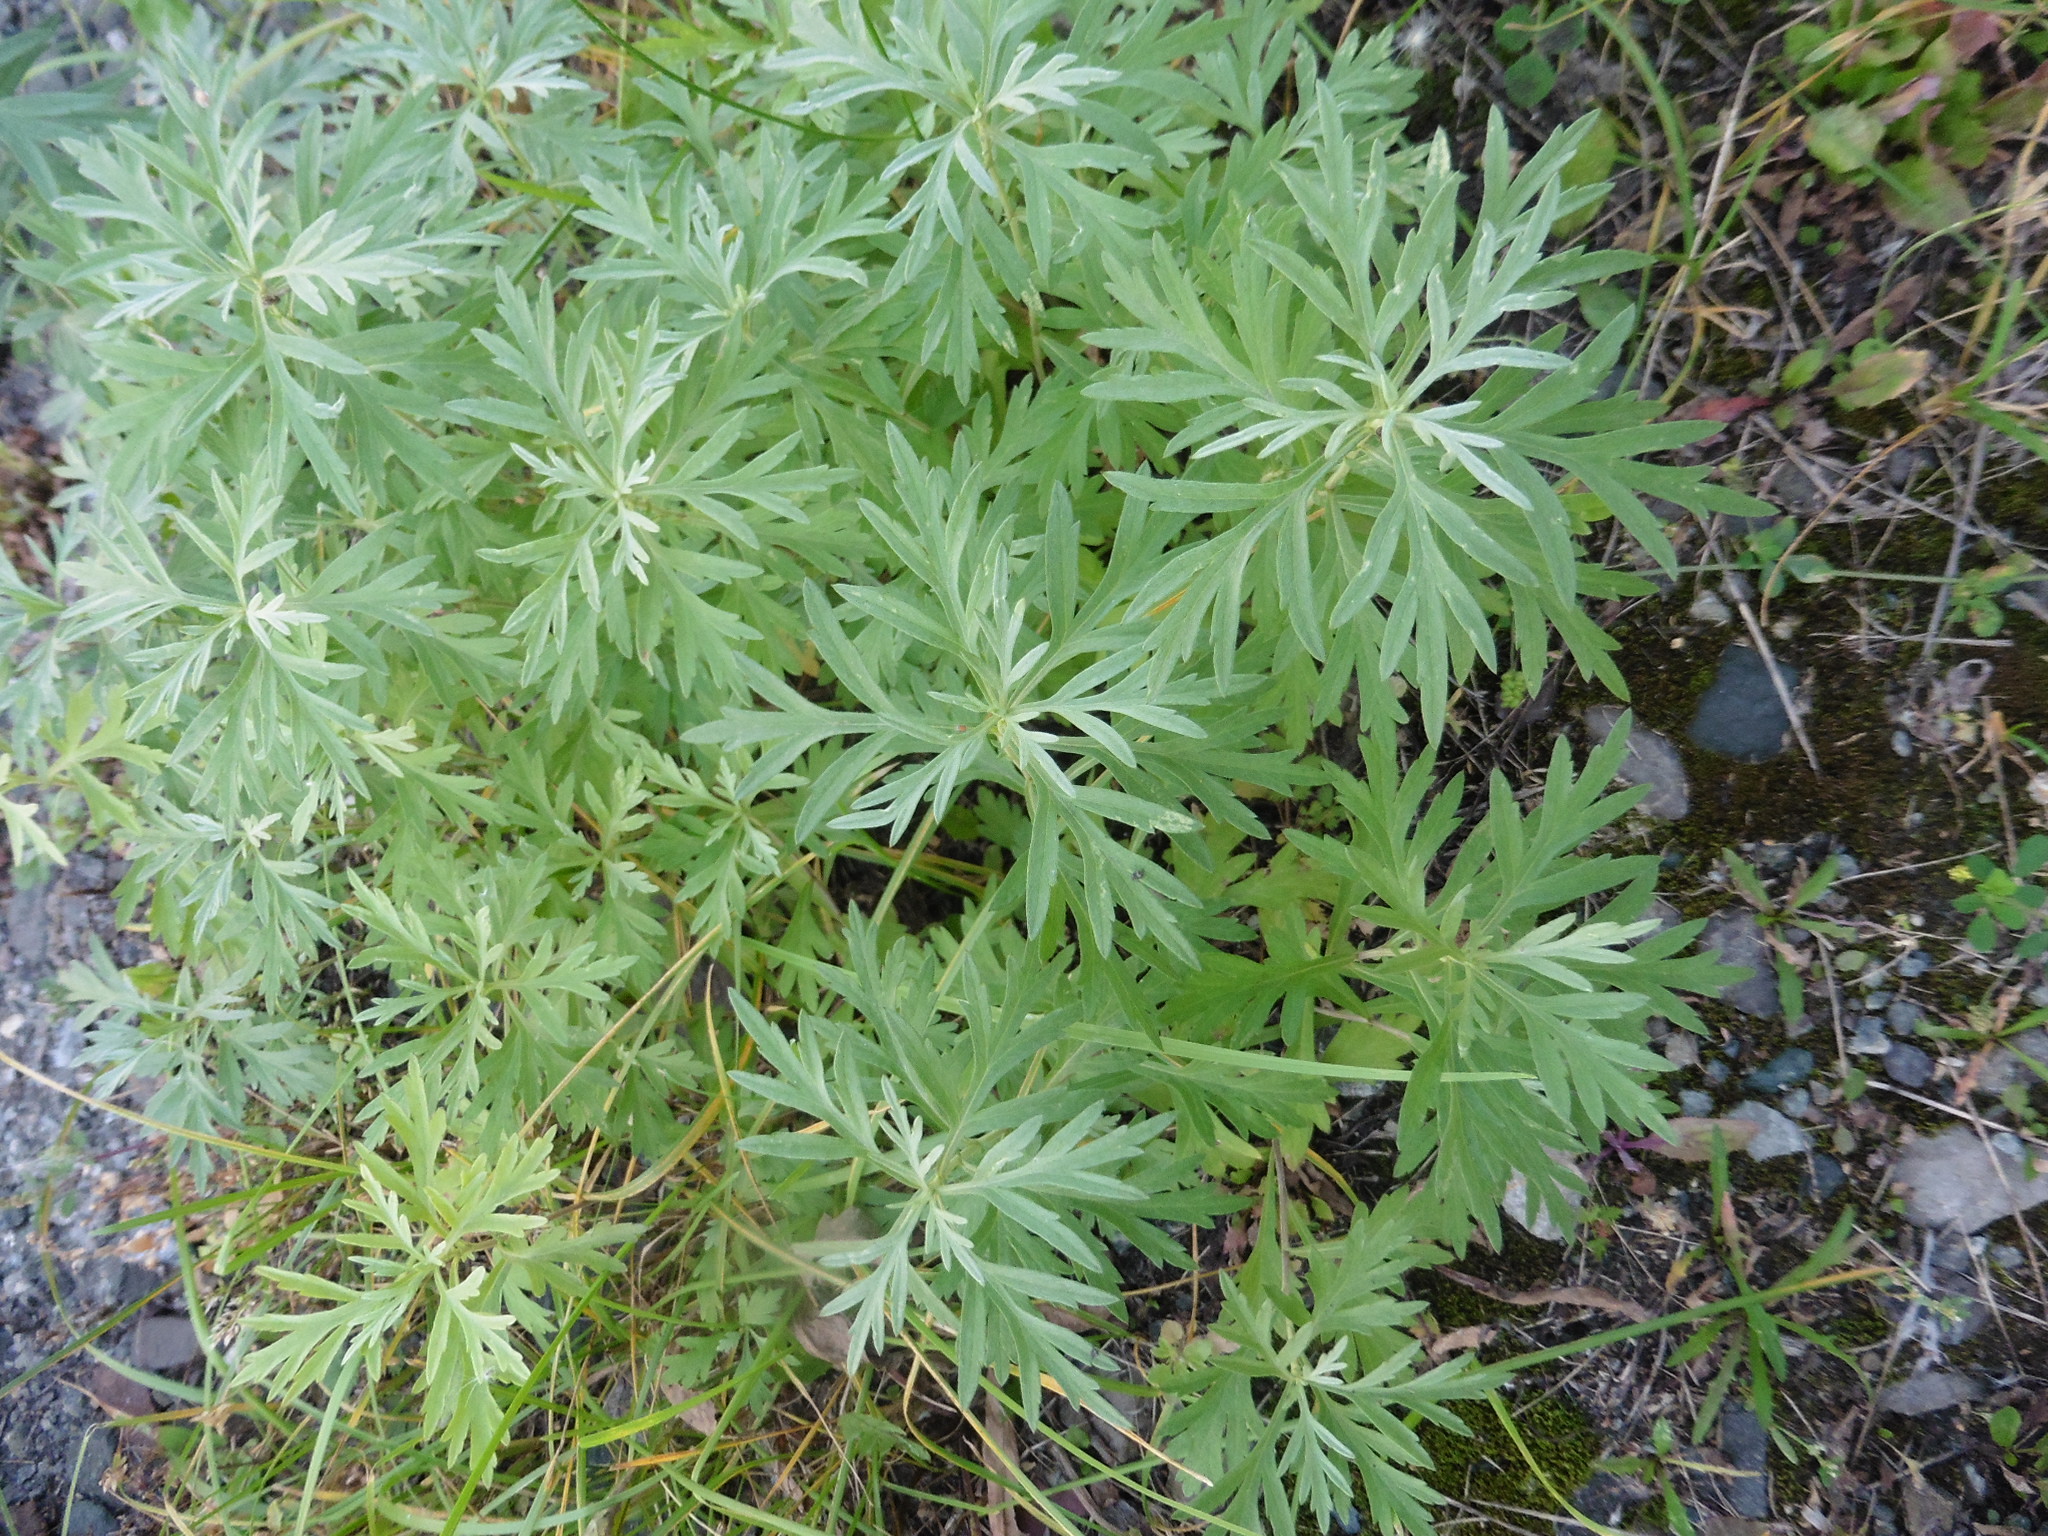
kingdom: Plantae
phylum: Tracheophyta
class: Magnoliopsida
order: Asterales
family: Asteraceae
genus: Artemisia
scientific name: Artemisia dubia
